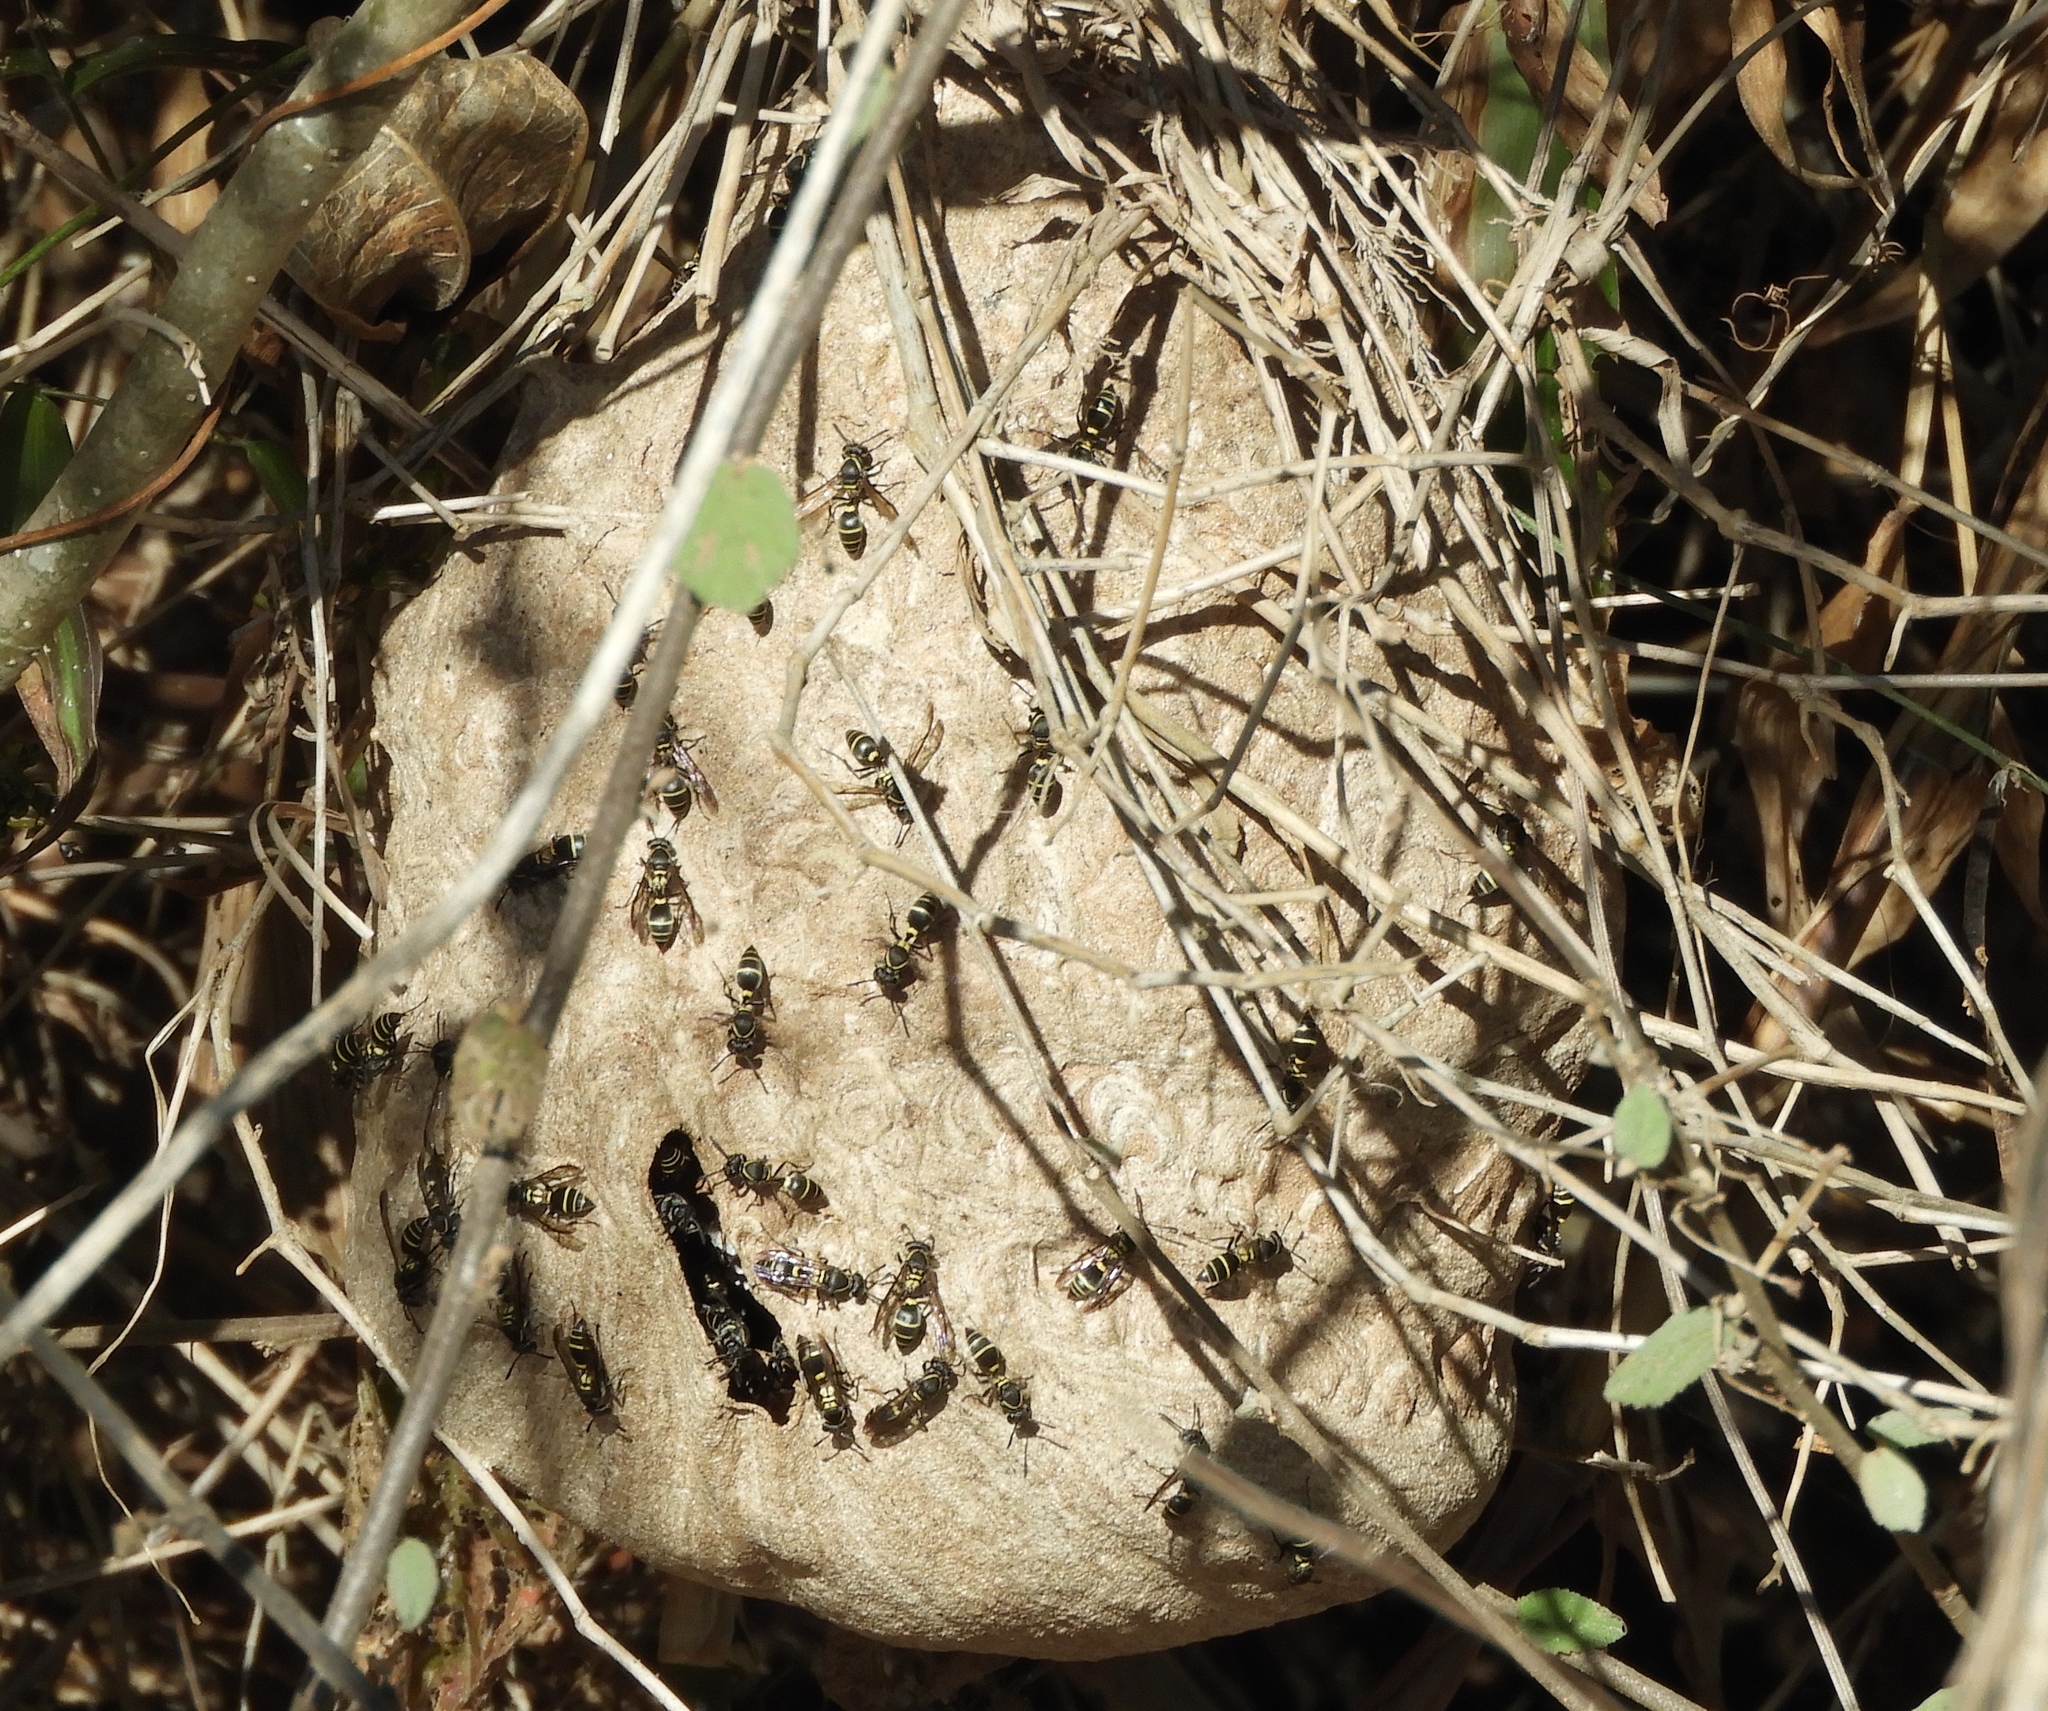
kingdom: Animalia
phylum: Arthropoda
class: Insecta
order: Hymenoptera
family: Vespidae
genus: Myrapetra
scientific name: Myrapetra
